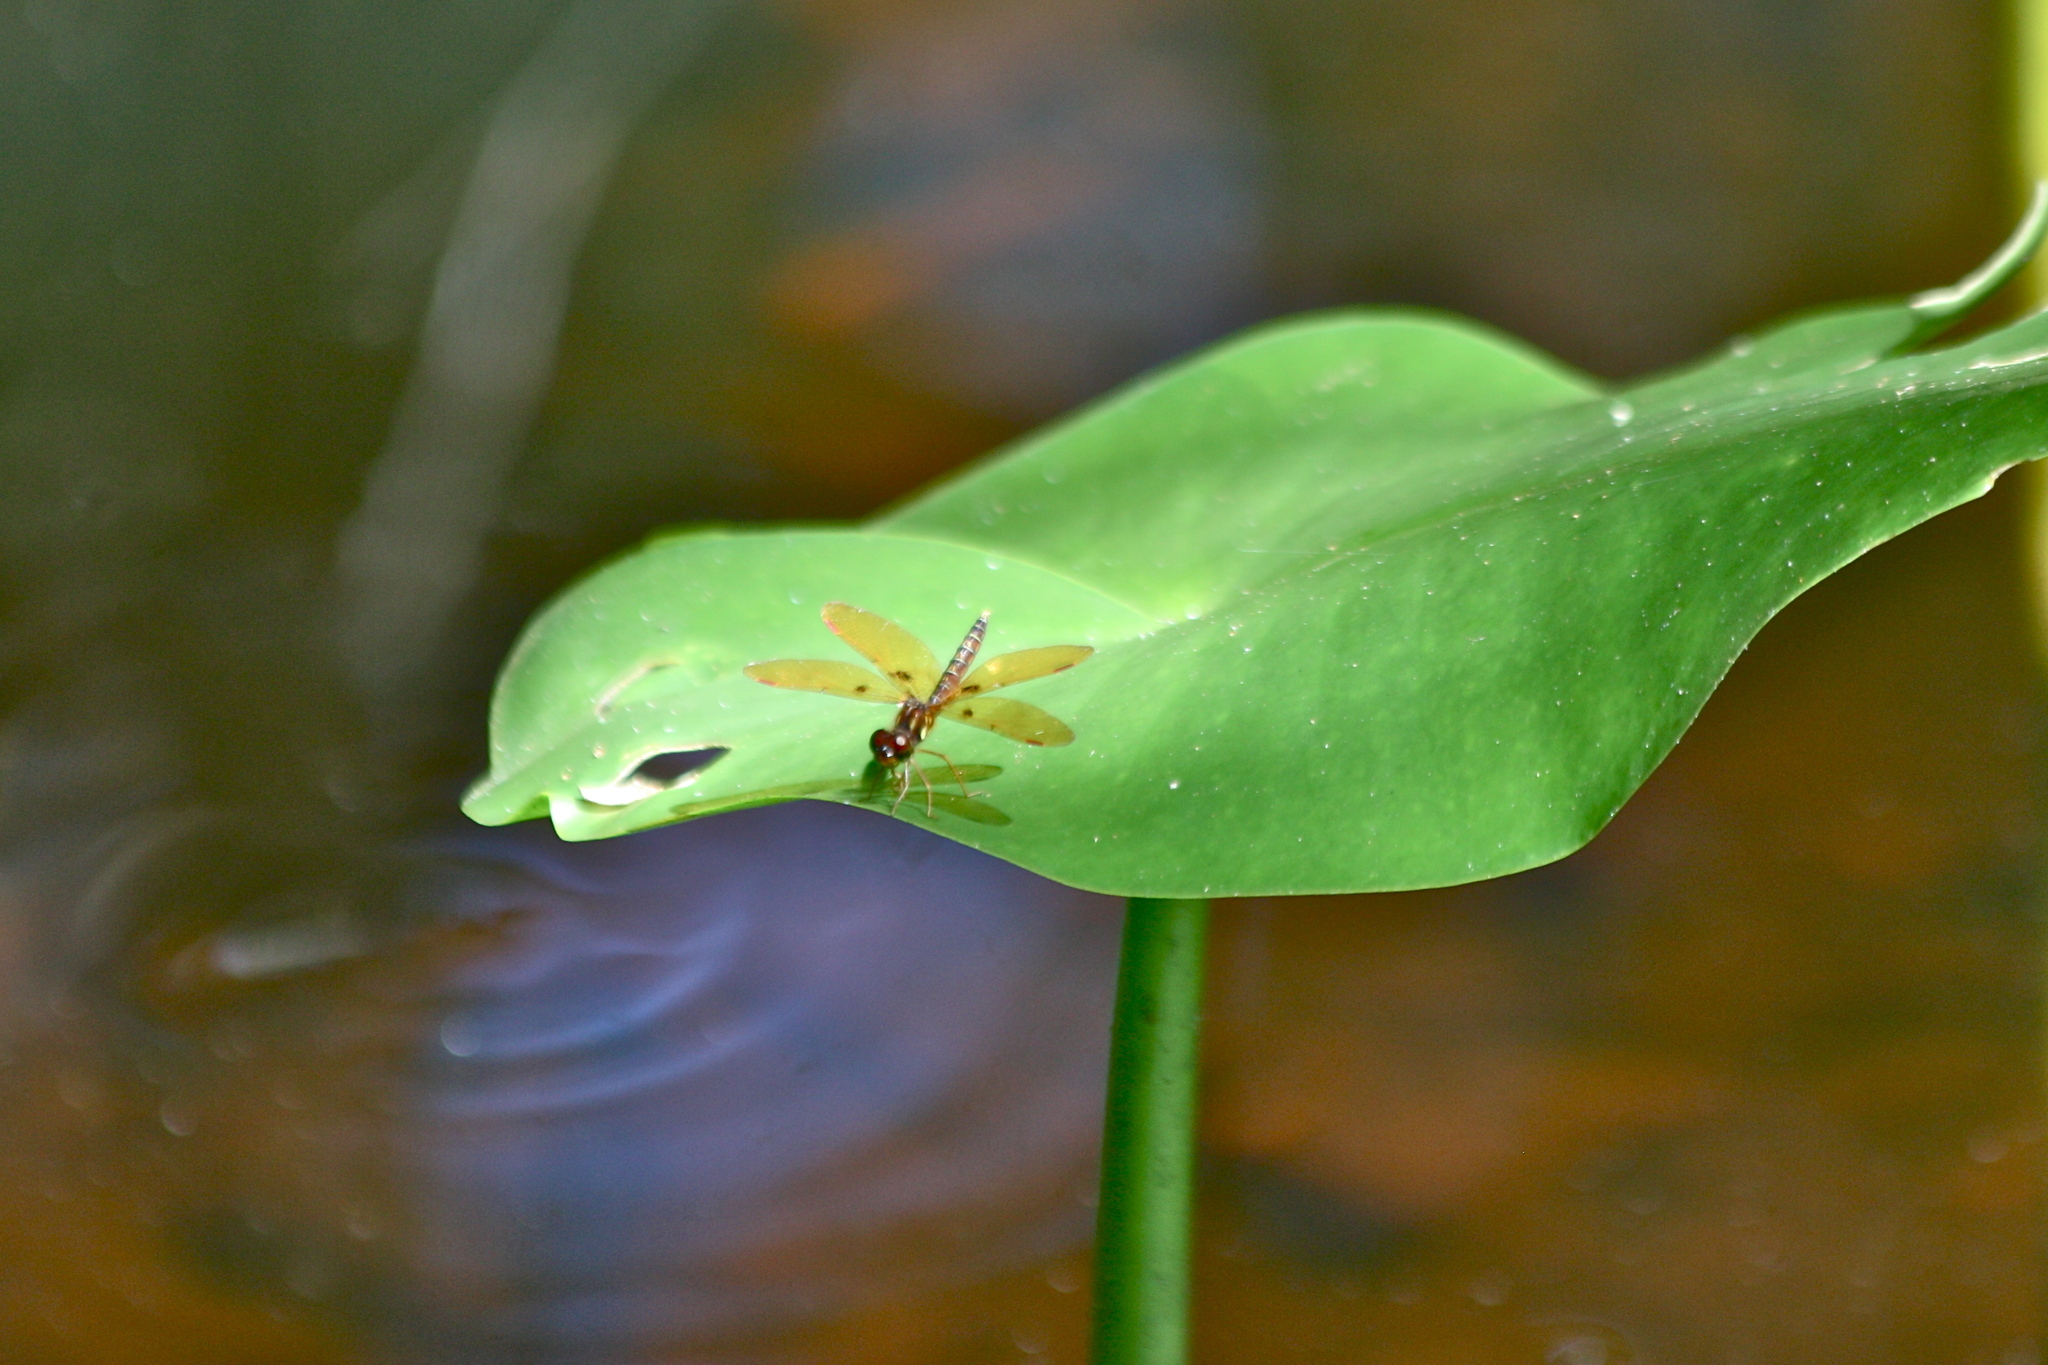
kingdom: Animalia
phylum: Arthropoda
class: Insecta
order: Odonata
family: Libellulidae
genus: Perithemis
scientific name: Perithemis tenera
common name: Eastern amberwing
